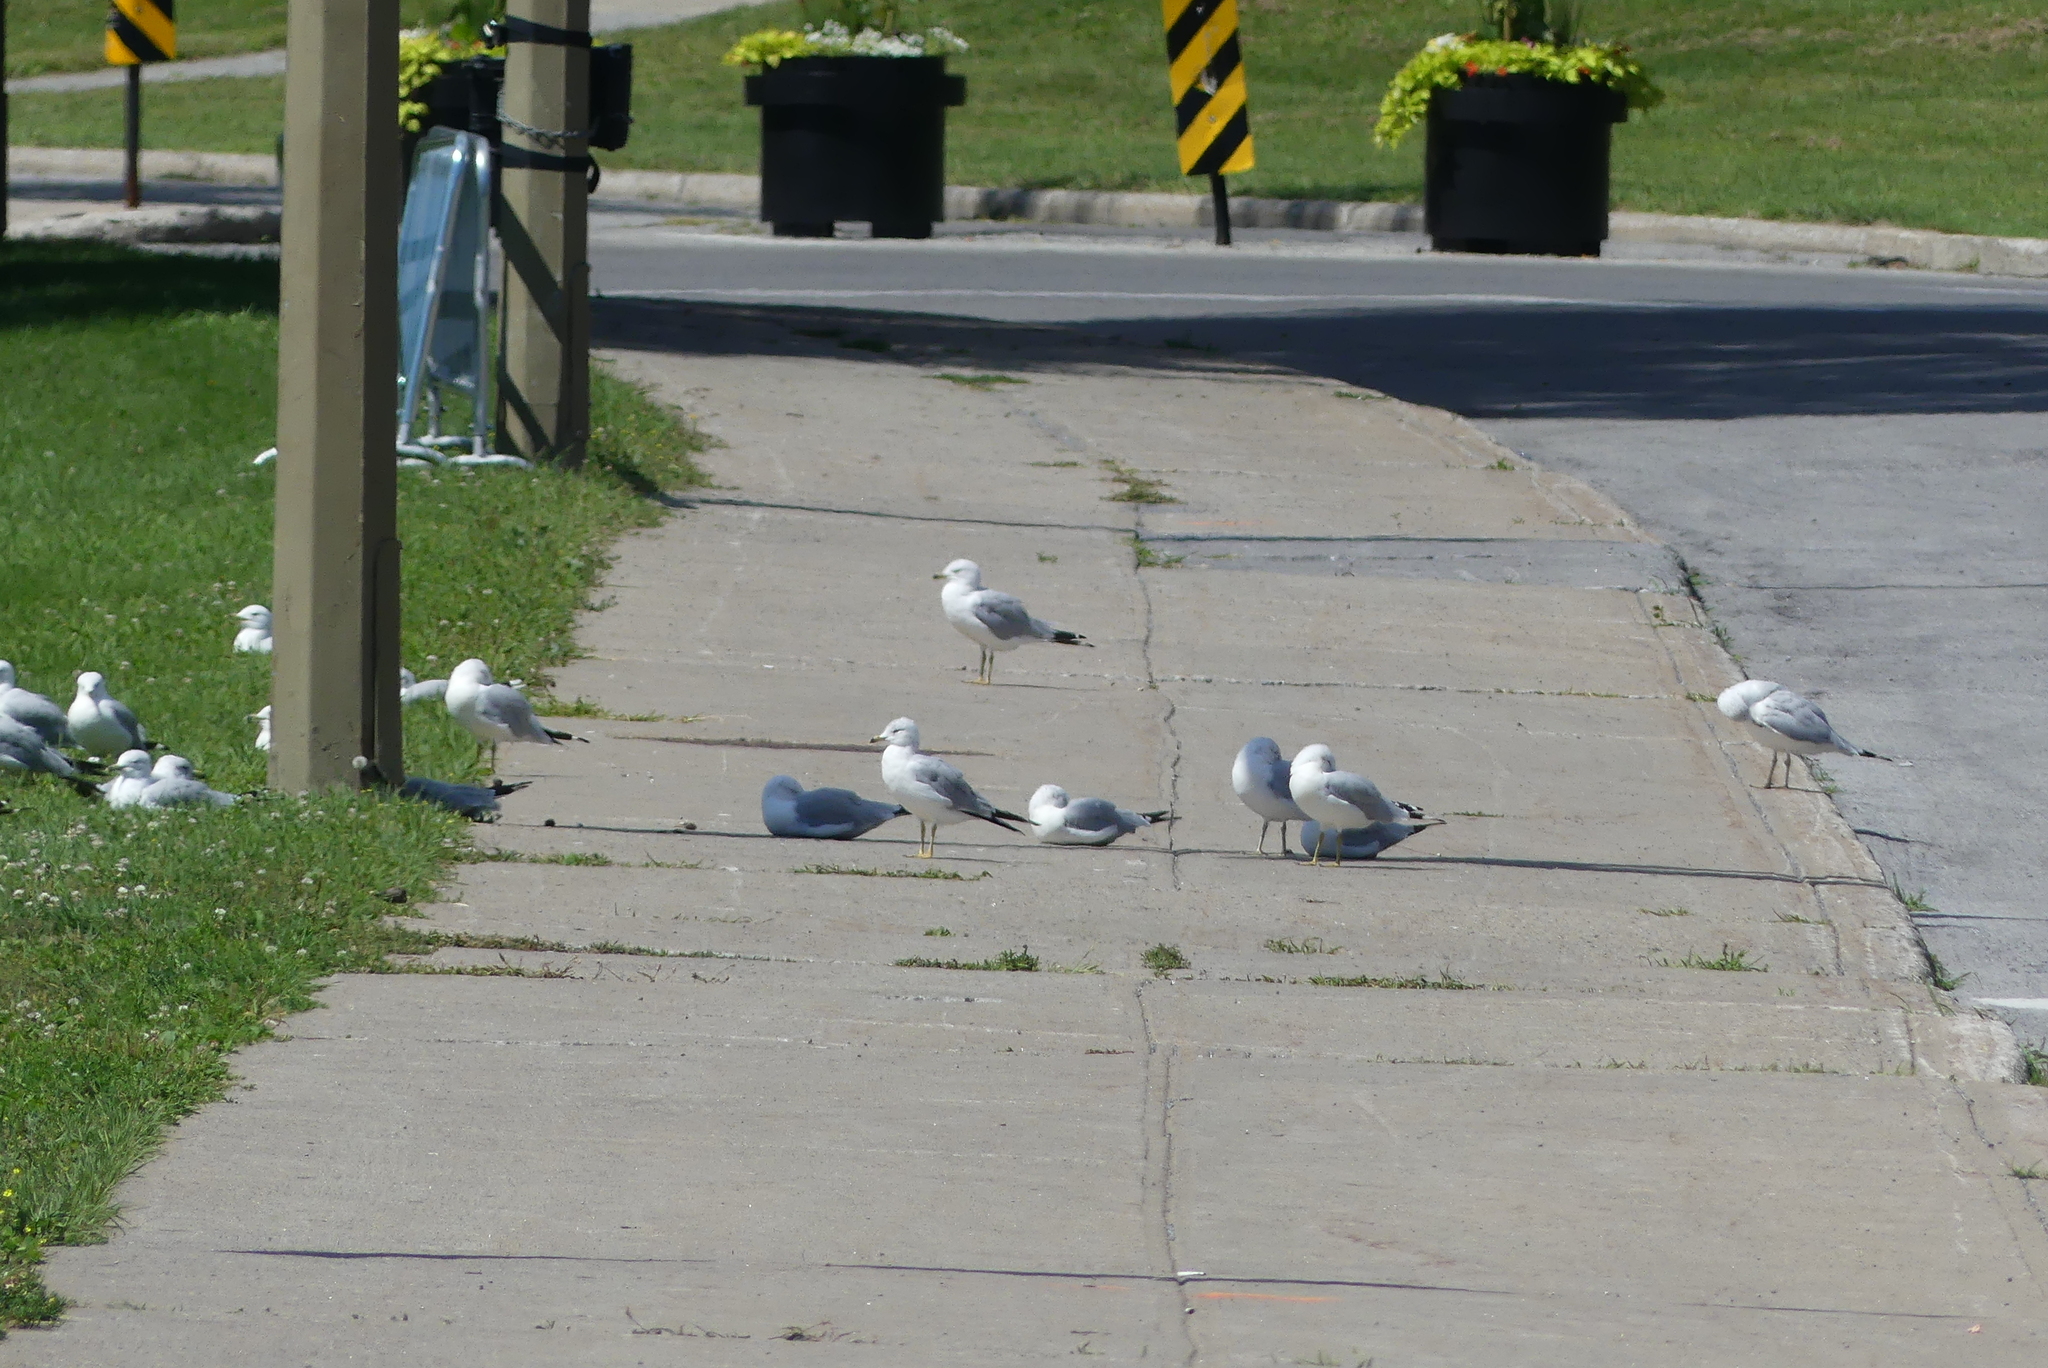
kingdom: Animalia
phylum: Chordata
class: Aves
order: Charadriiformes
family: Laridae
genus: Larus
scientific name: Larus delawarensis
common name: Ring-billed gull
